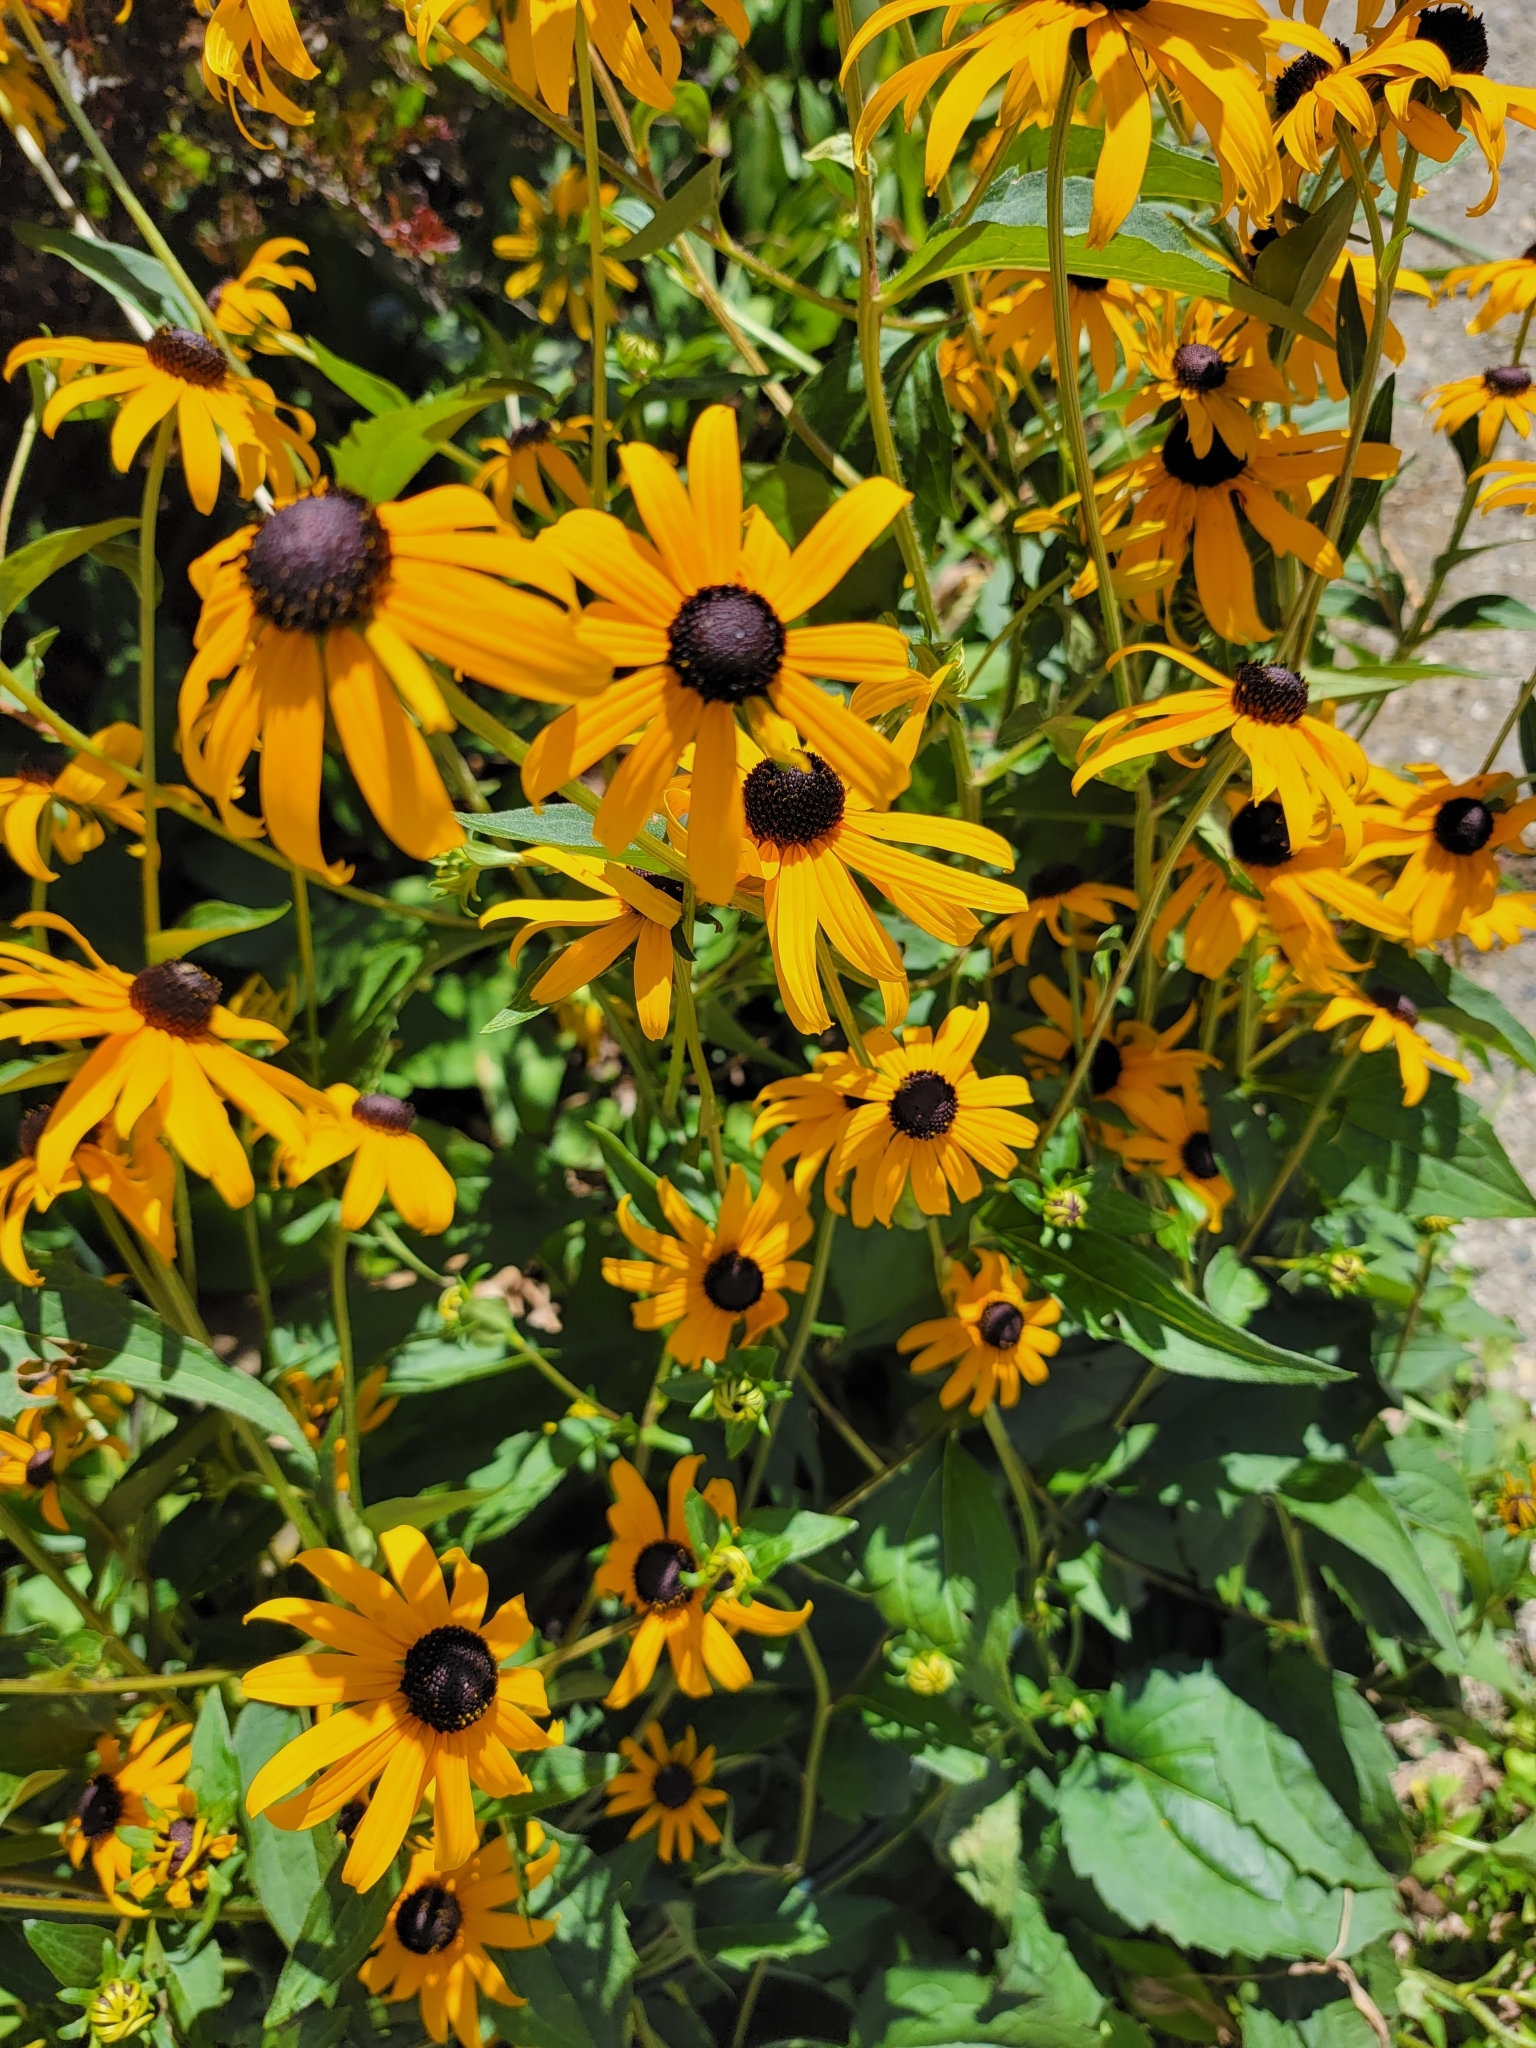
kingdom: Plantae
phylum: Tracheophyta
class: Magnoliopsida
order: Asterales
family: Asteraceae
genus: Rudbeckia
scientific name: Rudbeckia hirta
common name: Black-eyed-susan
